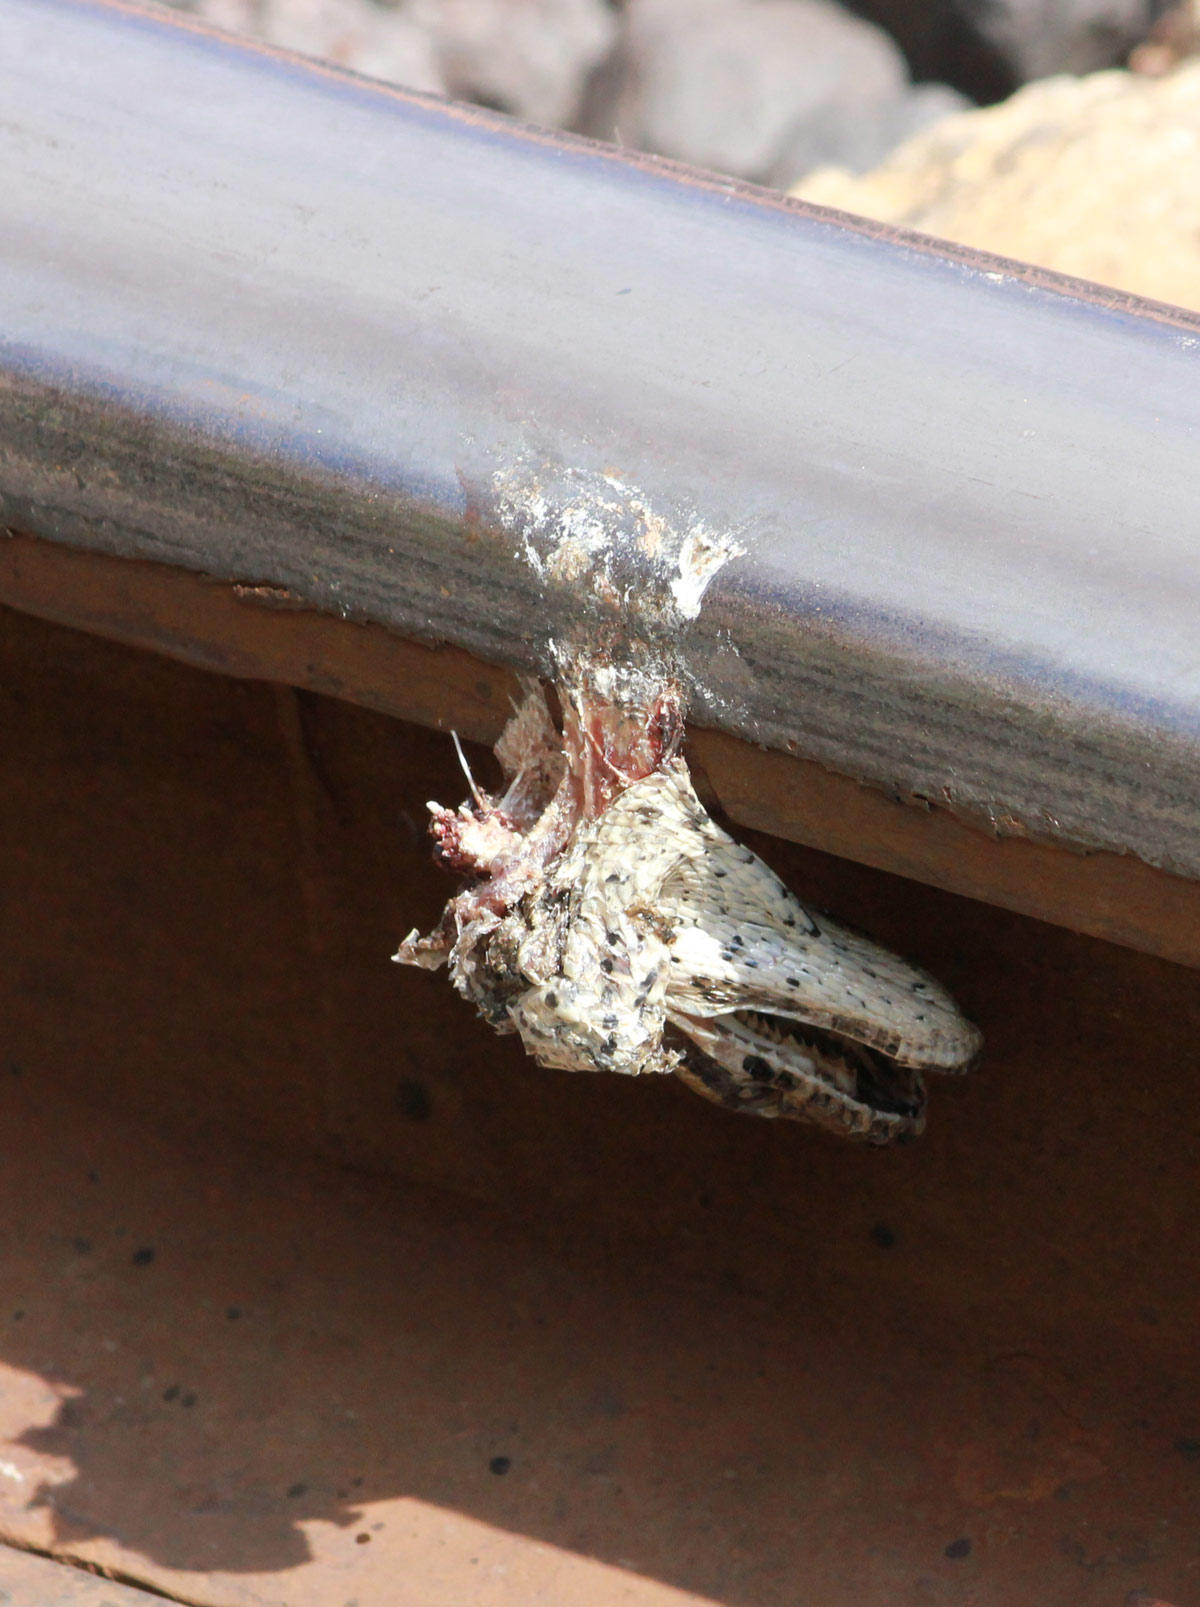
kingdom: Animalia
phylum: Chordata
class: Squamata
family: Pythonidae
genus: Python
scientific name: Python natalensis
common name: Southern african rock python
